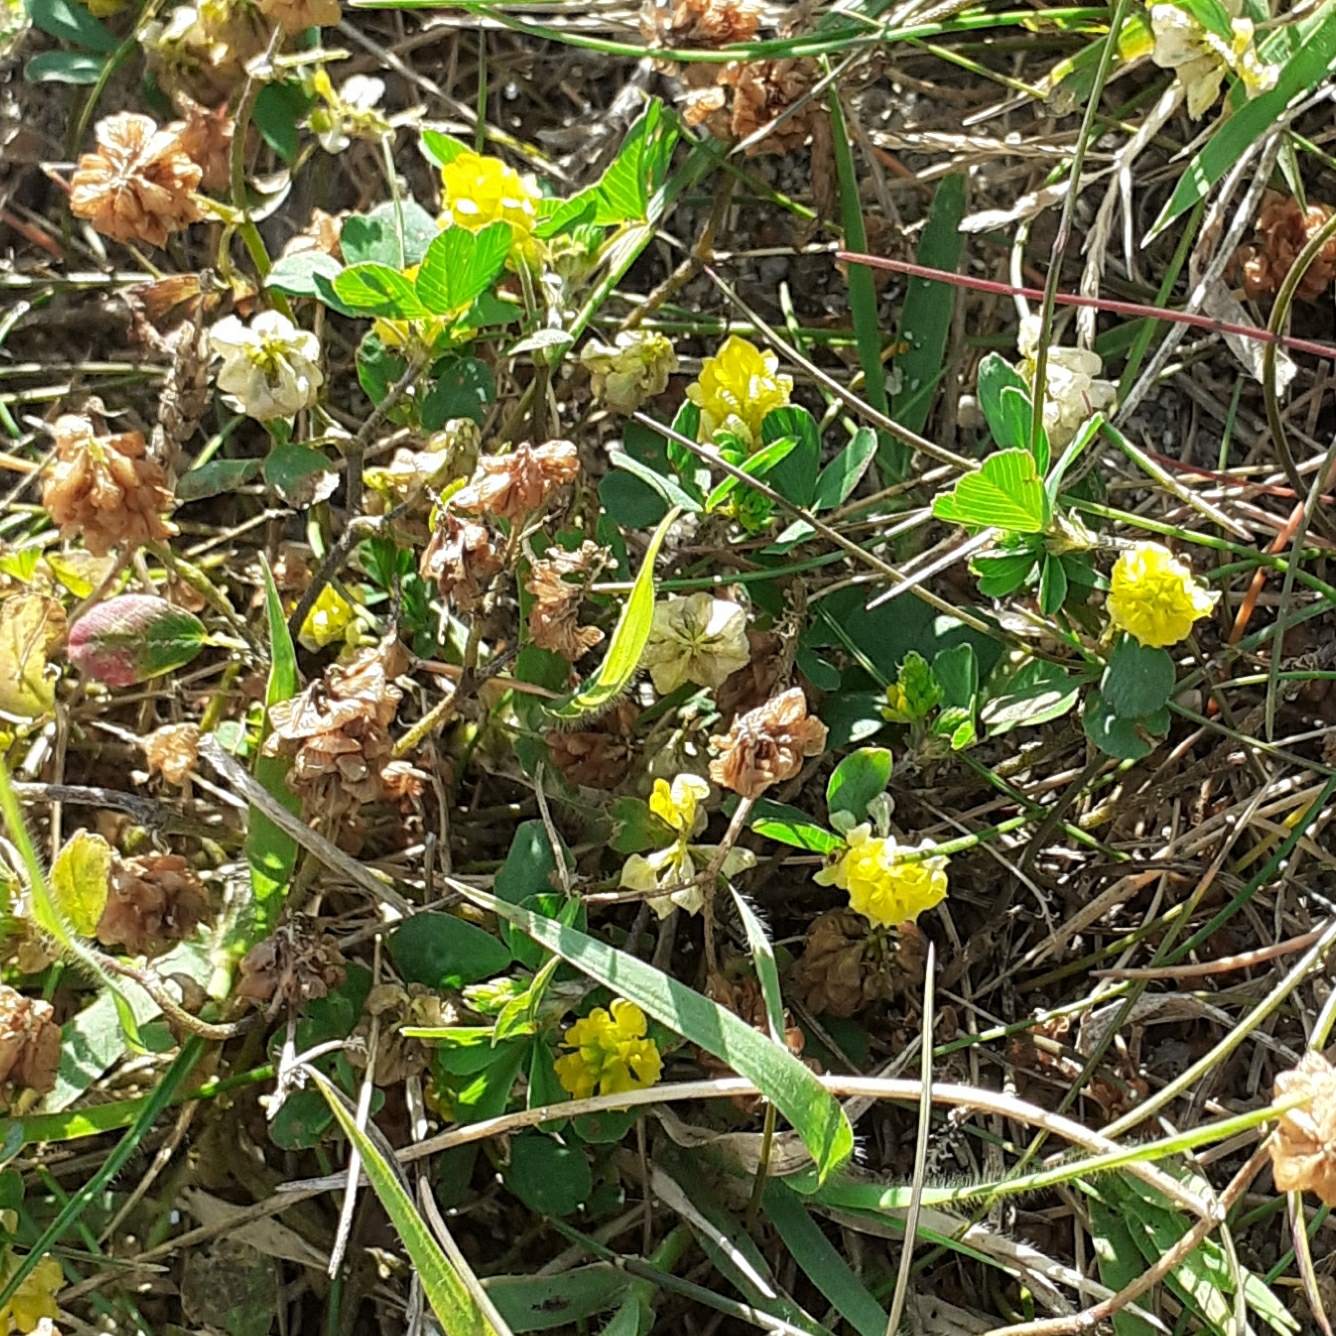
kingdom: Plantae
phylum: Tracheophyta
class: Magnoliopsida
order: Fabales
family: Fabaceae
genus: Trifolium
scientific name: Trifolium campestre
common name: Field clover
